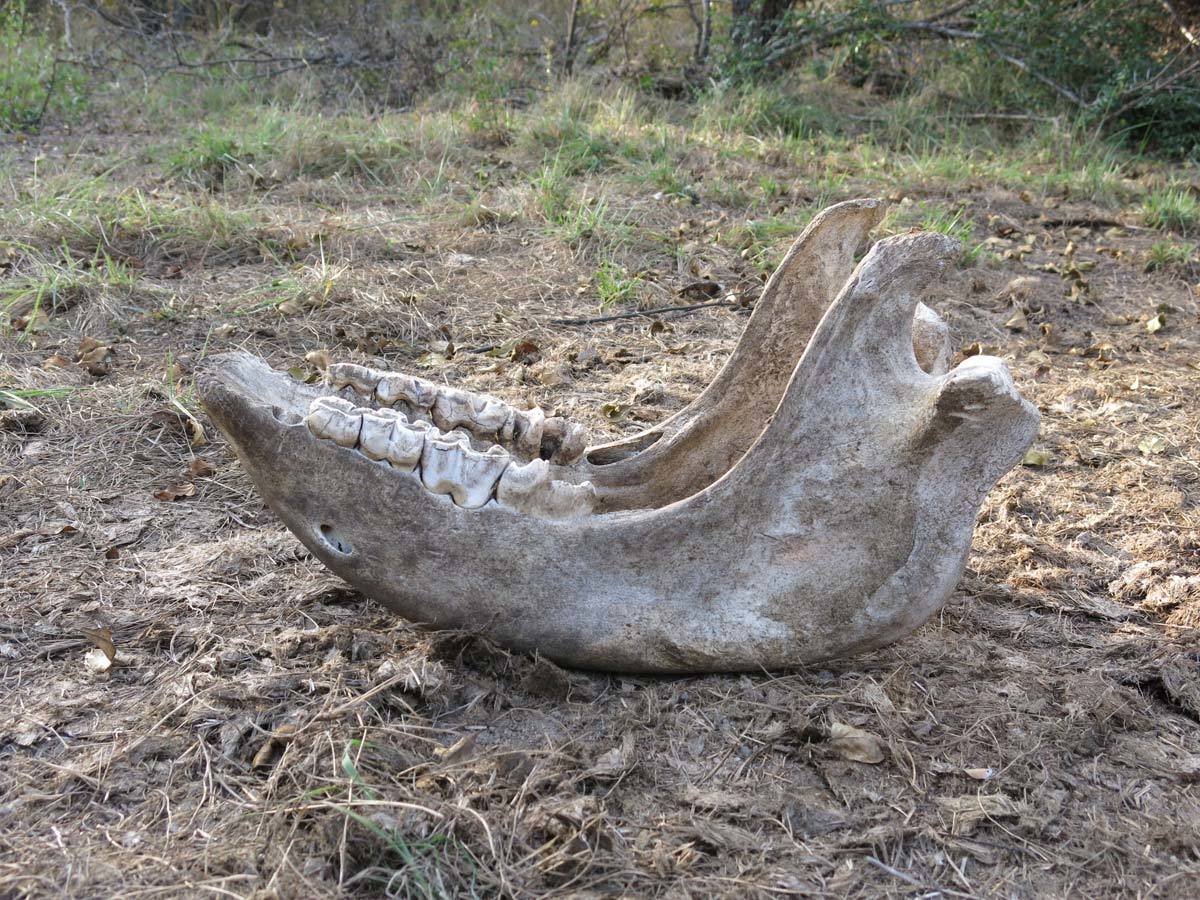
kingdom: Animalia
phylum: Chordata
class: Mammalia
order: Perissodactyla
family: Rhinocerotidae
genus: Ceratotherium
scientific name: Ceratotherium simum
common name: White rhinoceros
